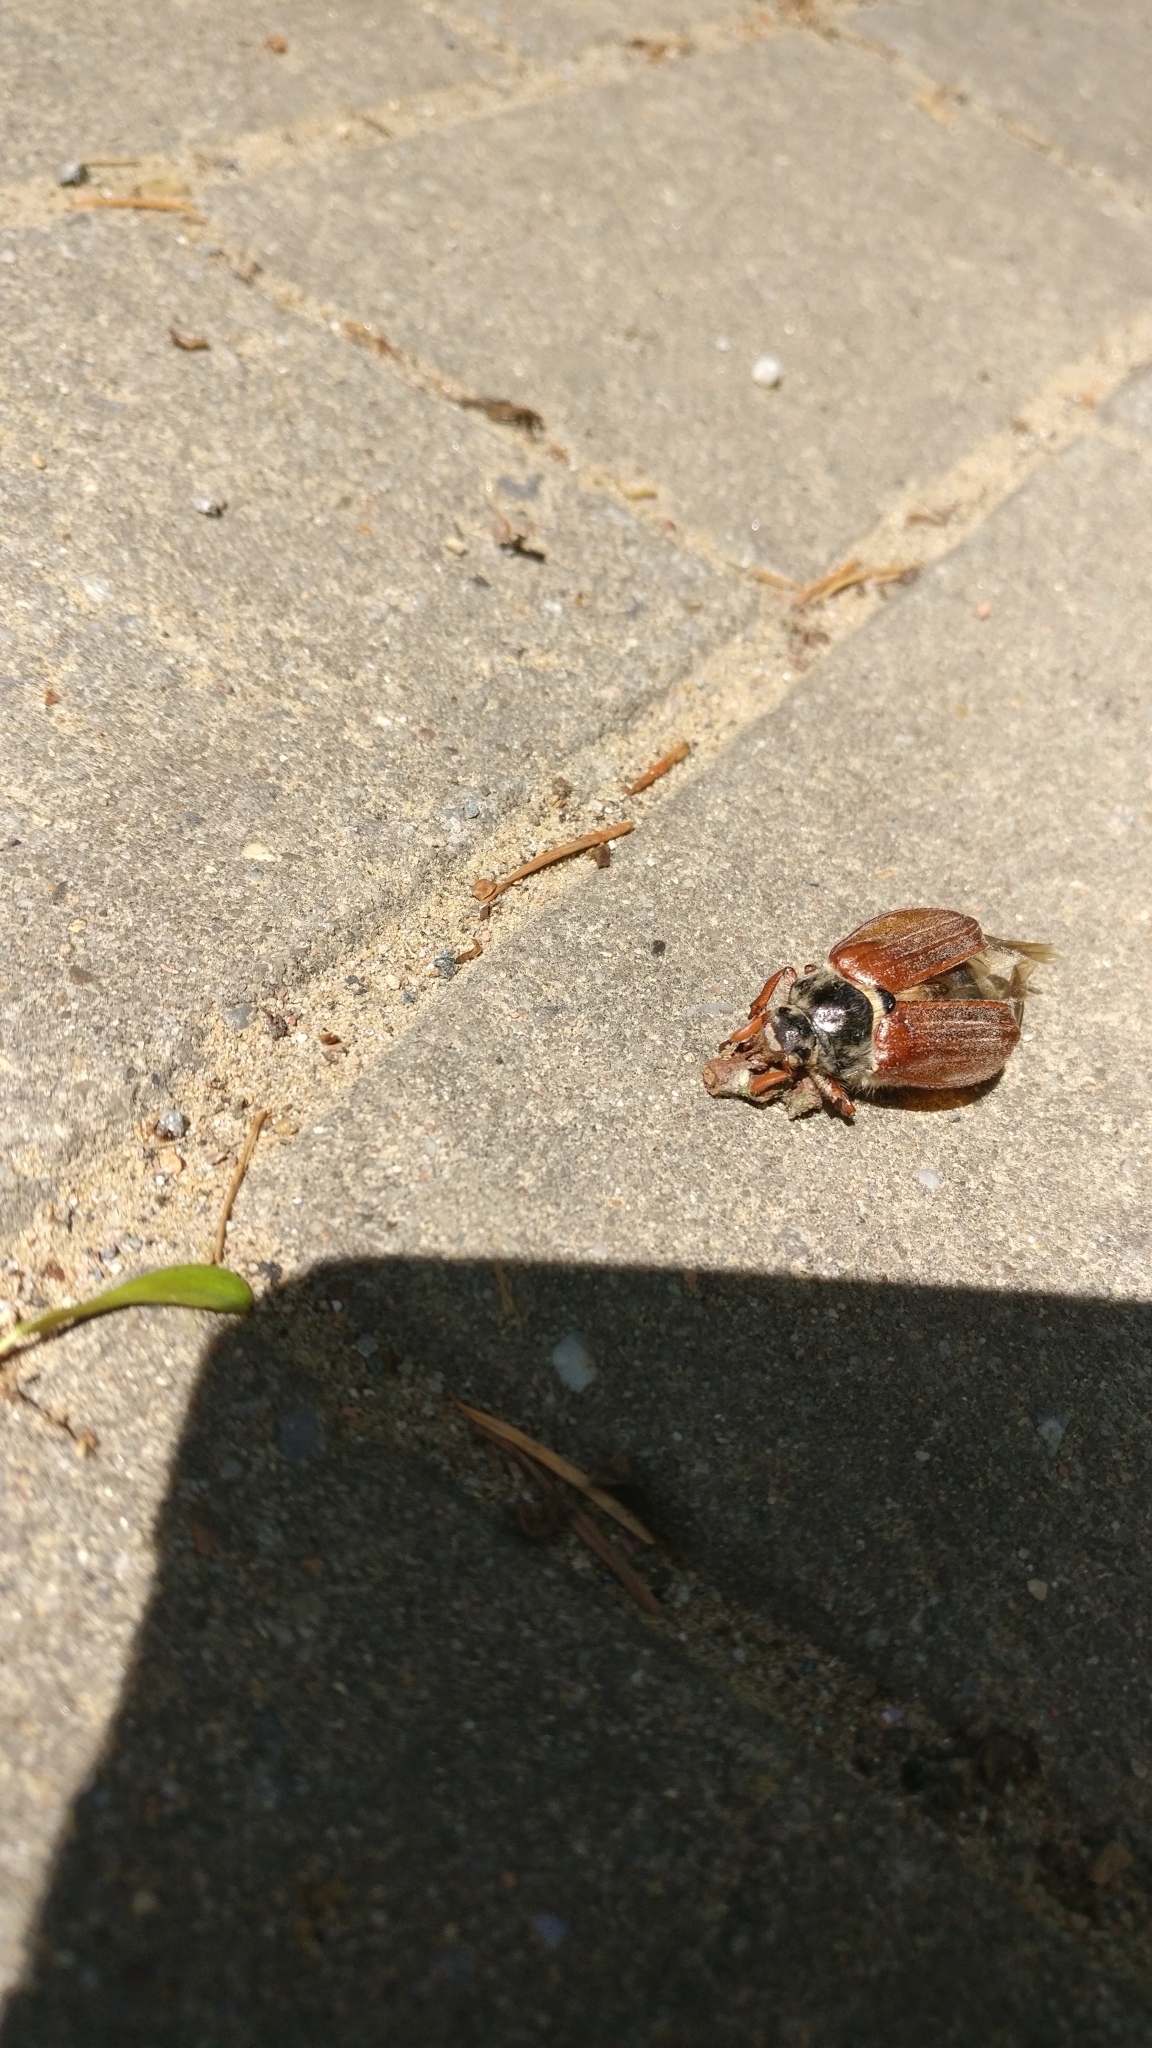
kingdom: Animalia
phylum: Arthropoda
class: Insecta
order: Coleoptera
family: Scarabaeidae
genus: Melolontha
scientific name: Melolontha melolontha
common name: Cockchafer maybeetle
